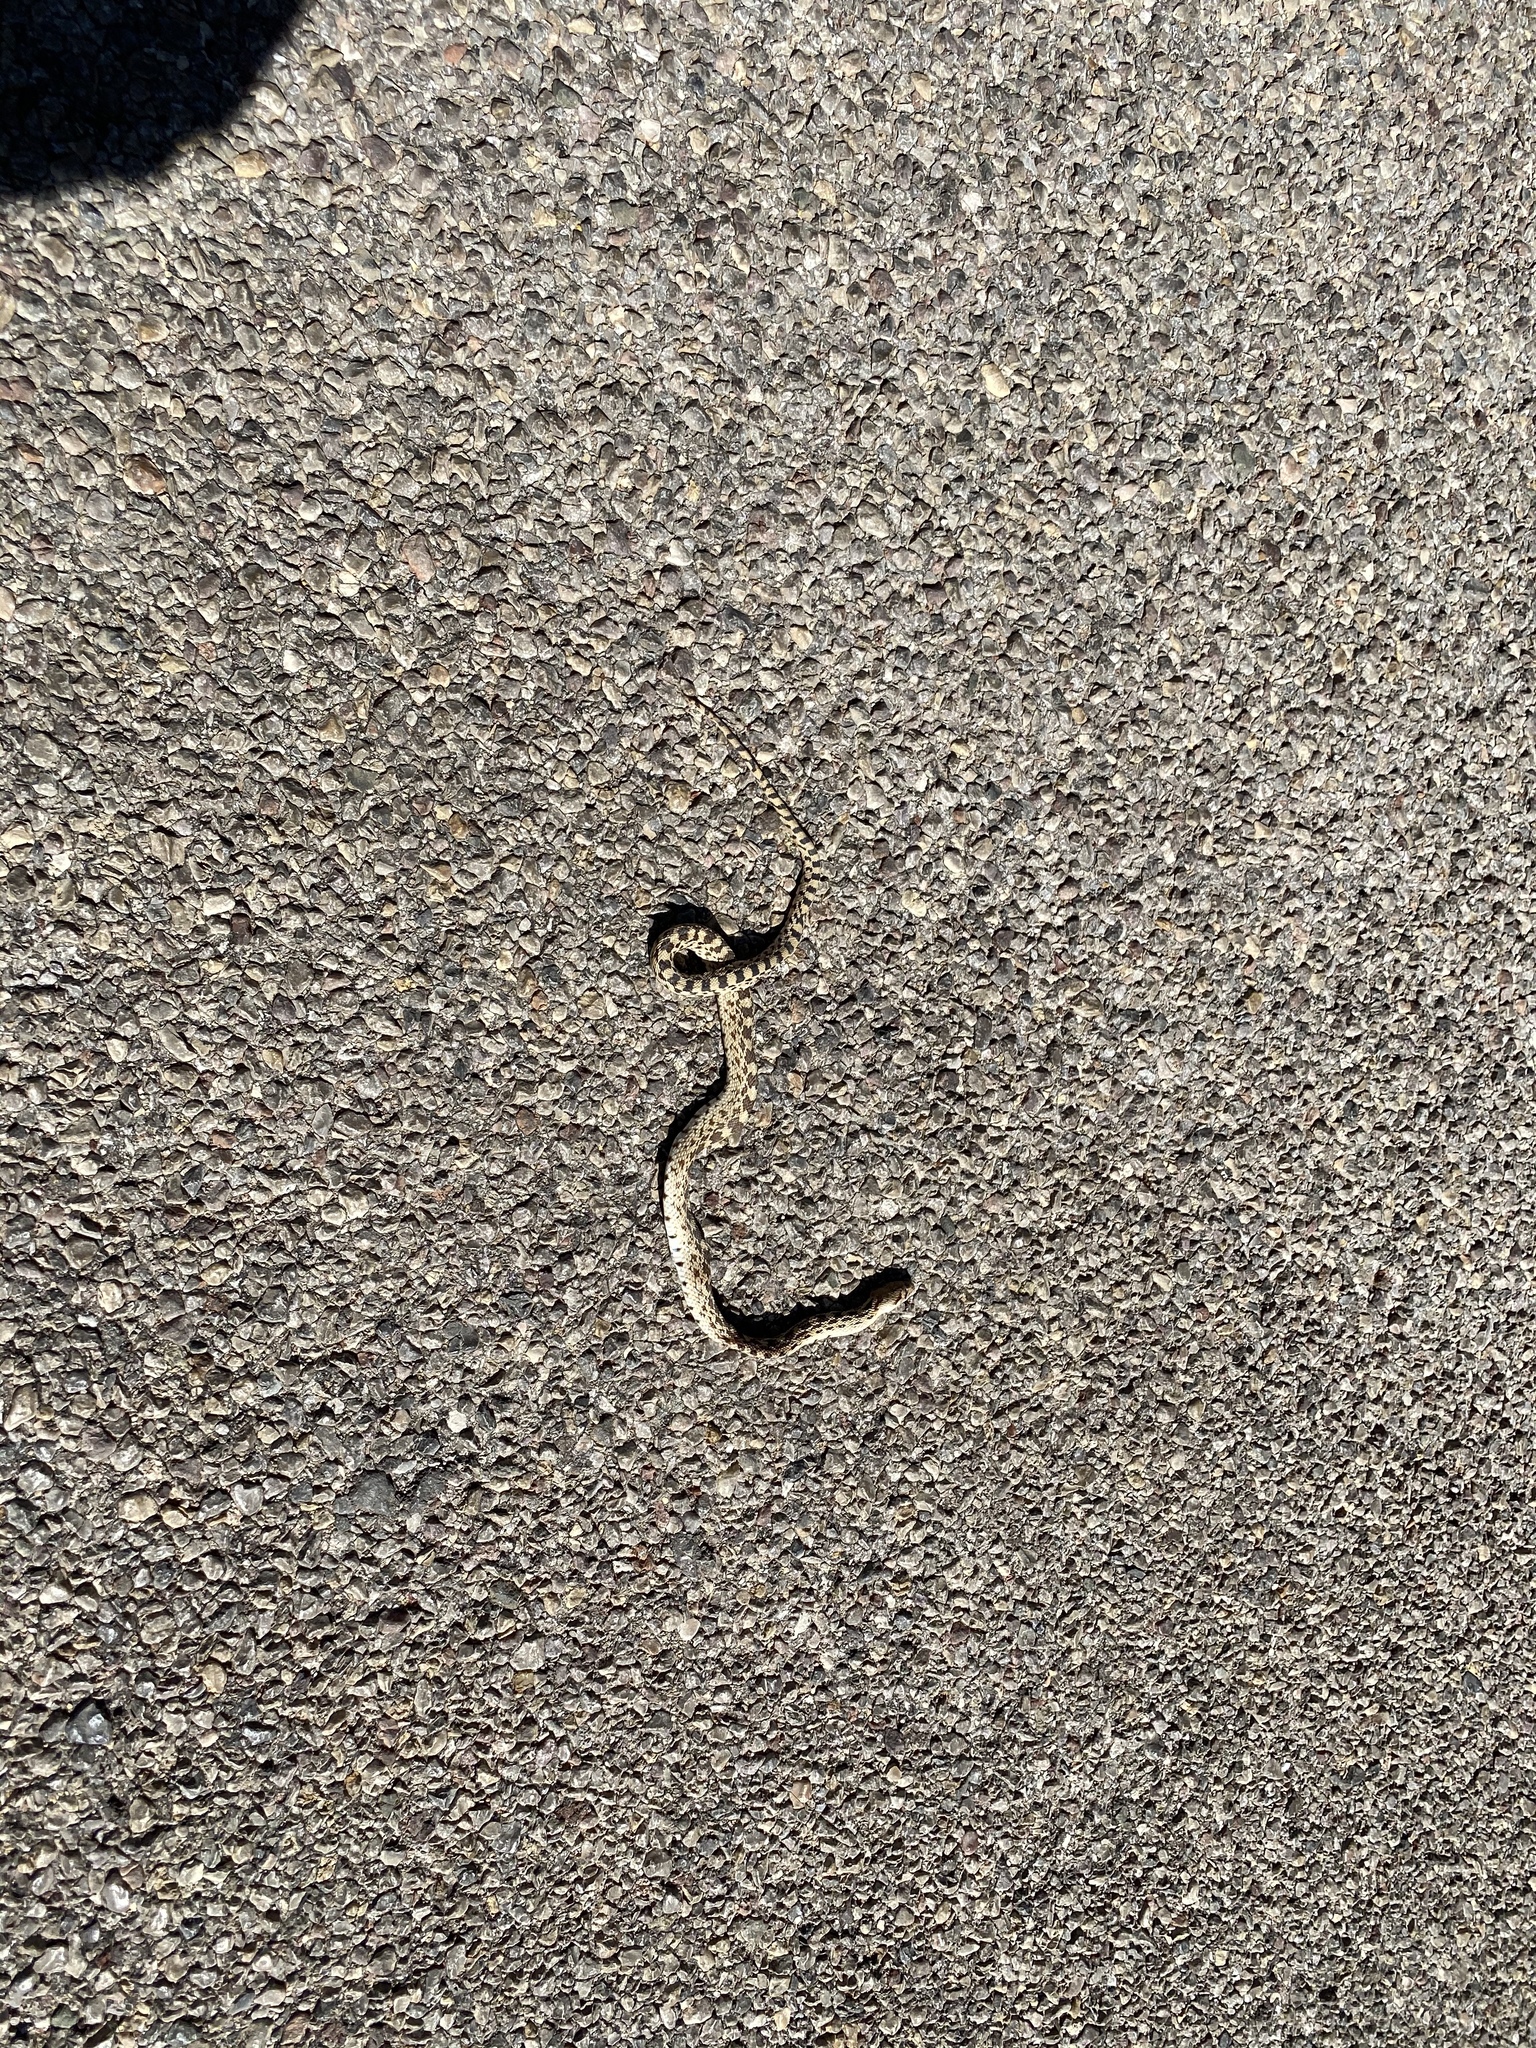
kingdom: Animalia
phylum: Chordata
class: Squamata
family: Colubridae
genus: Pituophis
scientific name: Pituophis catenifer
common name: Gopher snake
